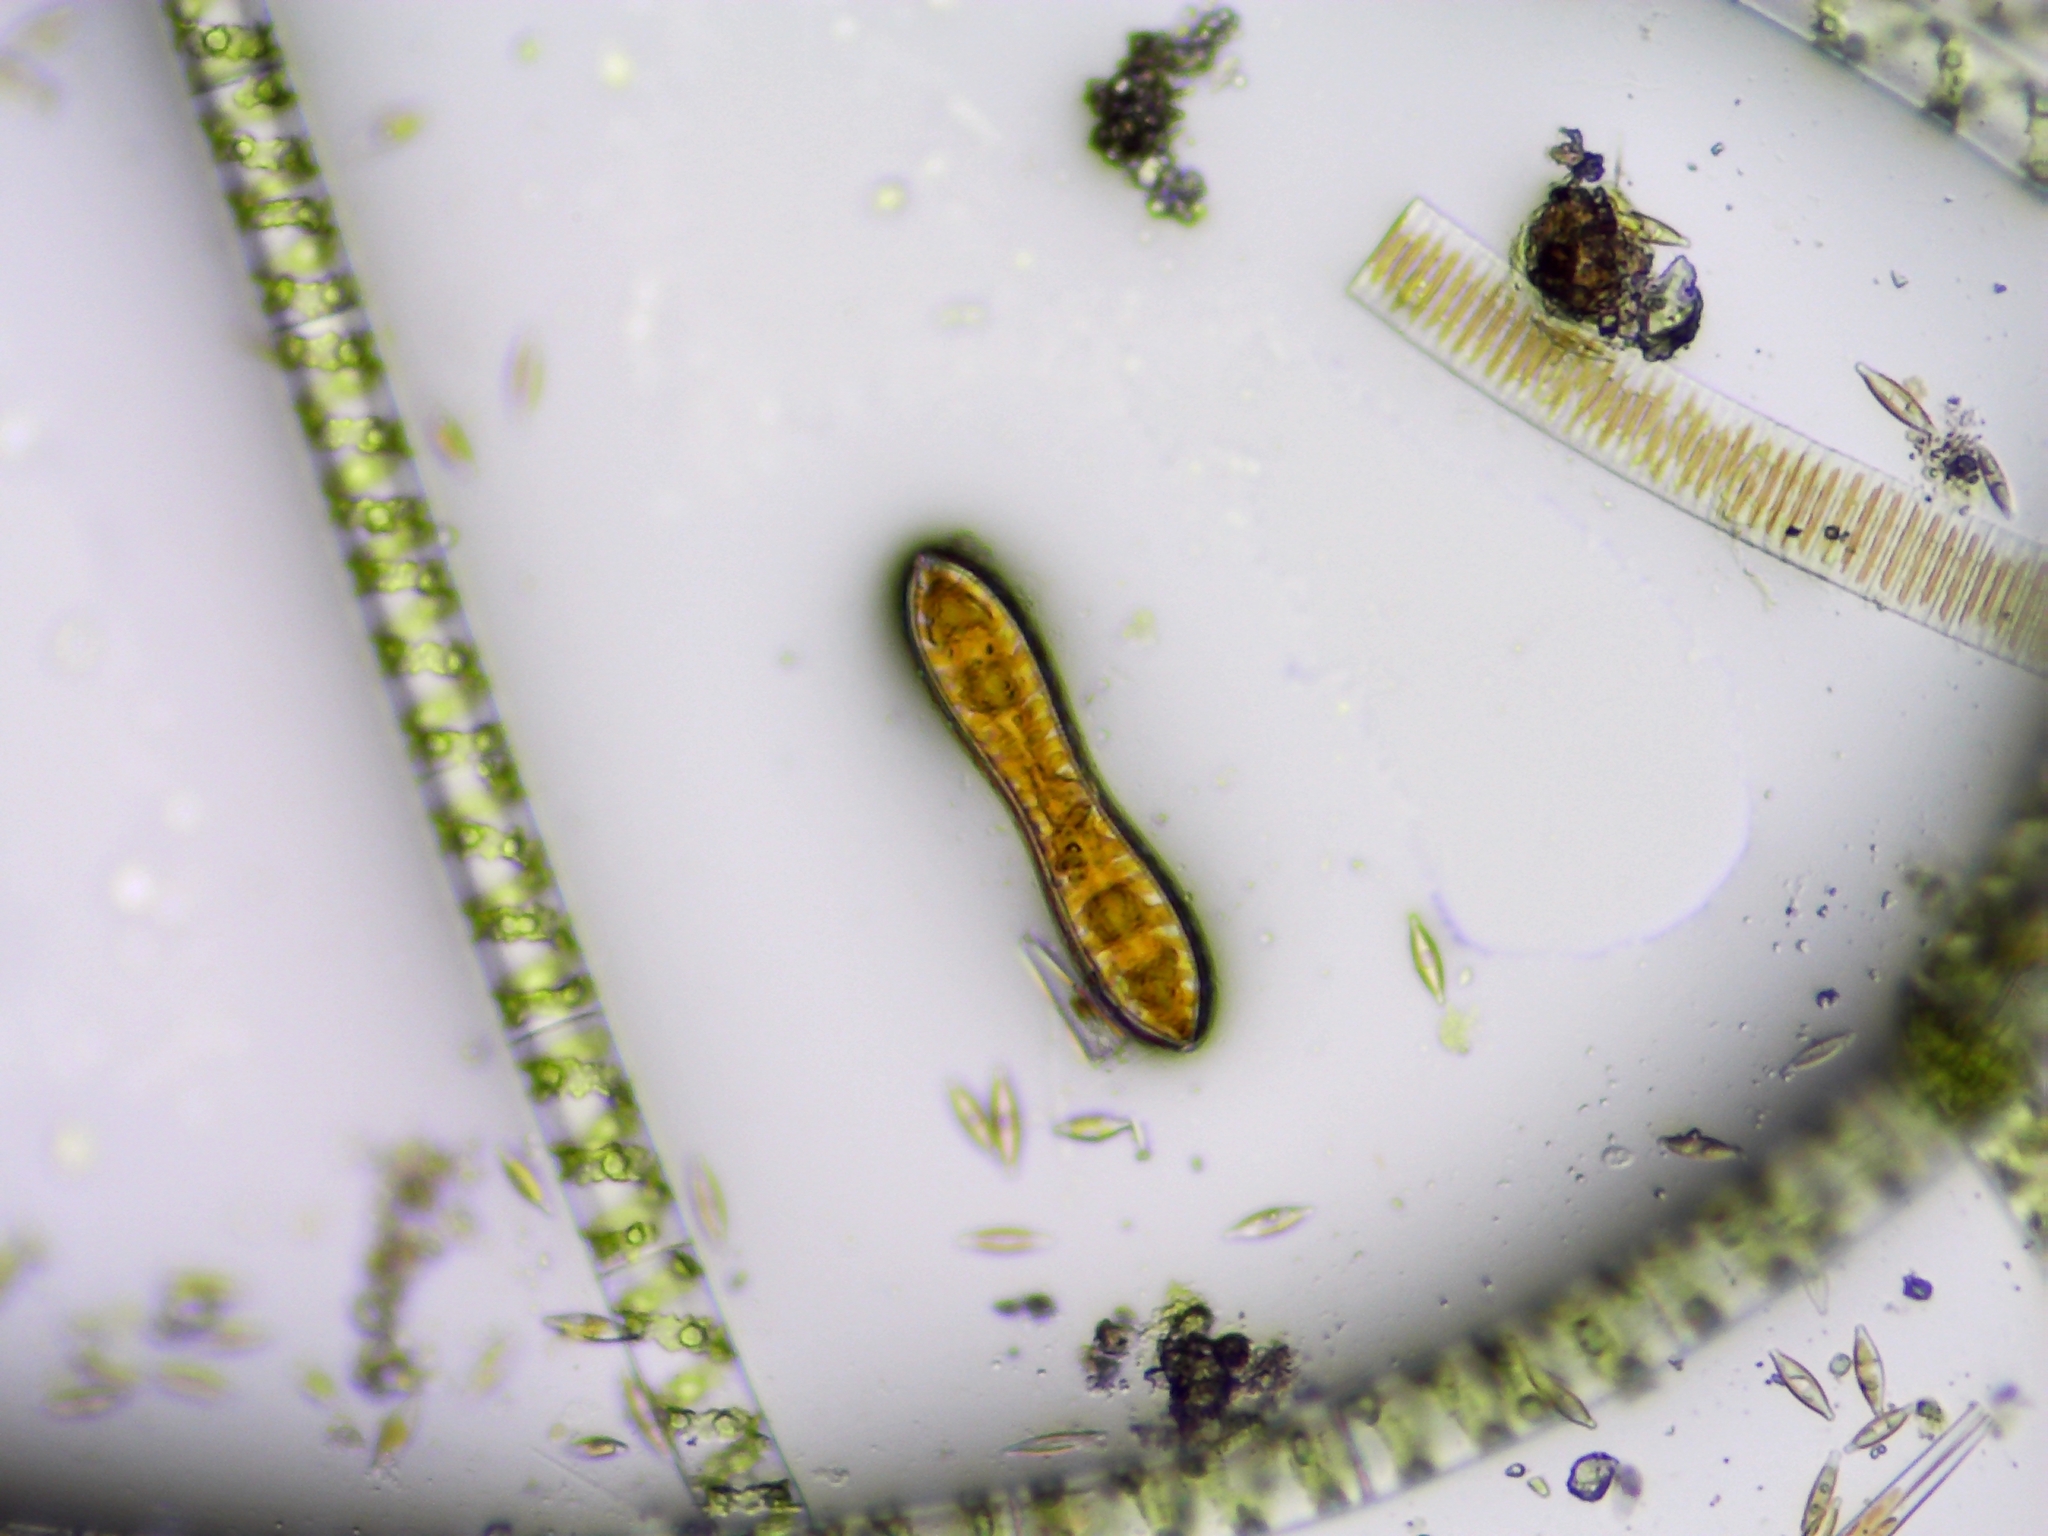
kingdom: Chromista
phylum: Ochrophyta
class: Bacillariophyceae
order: Surirellales
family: Surirellaceae
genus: Surirella
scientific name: Surirella librile
